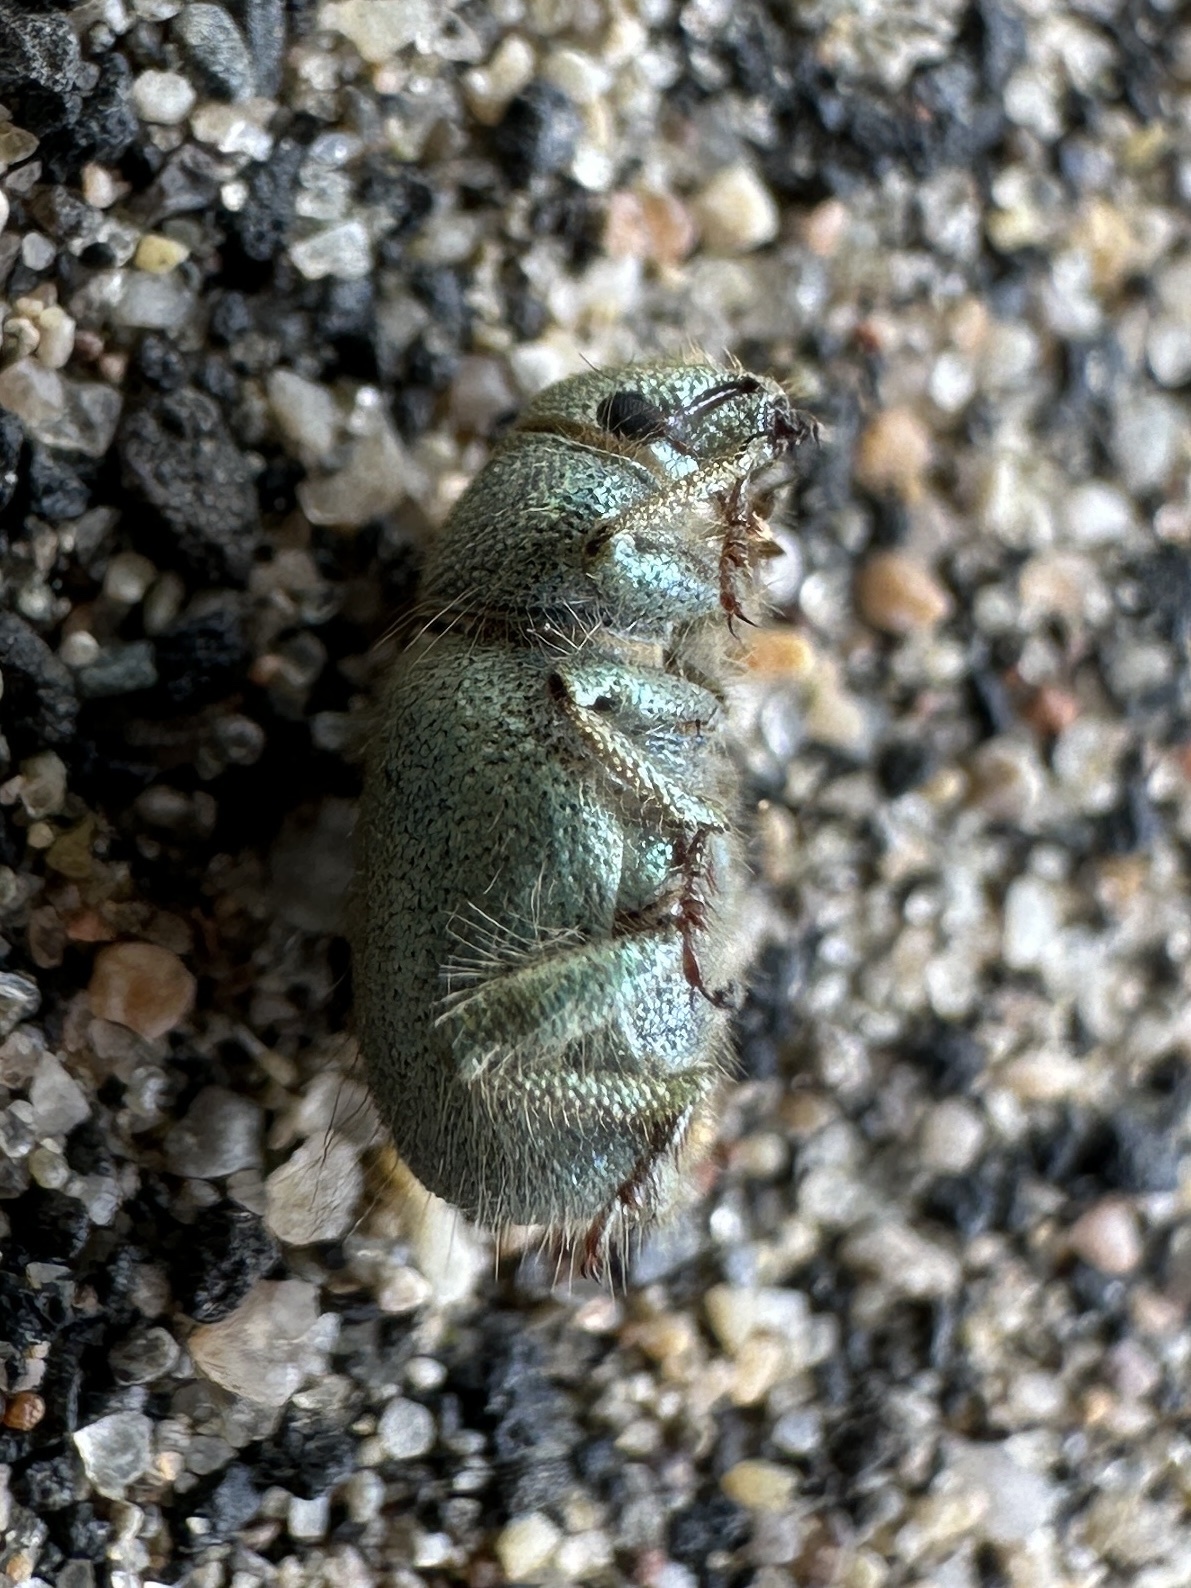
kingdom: Animalia
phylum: Arthropoda
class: Insecta
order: Coleoptera
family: Curculionidae
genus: Miloderes
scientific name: Miloderes nelsoni
